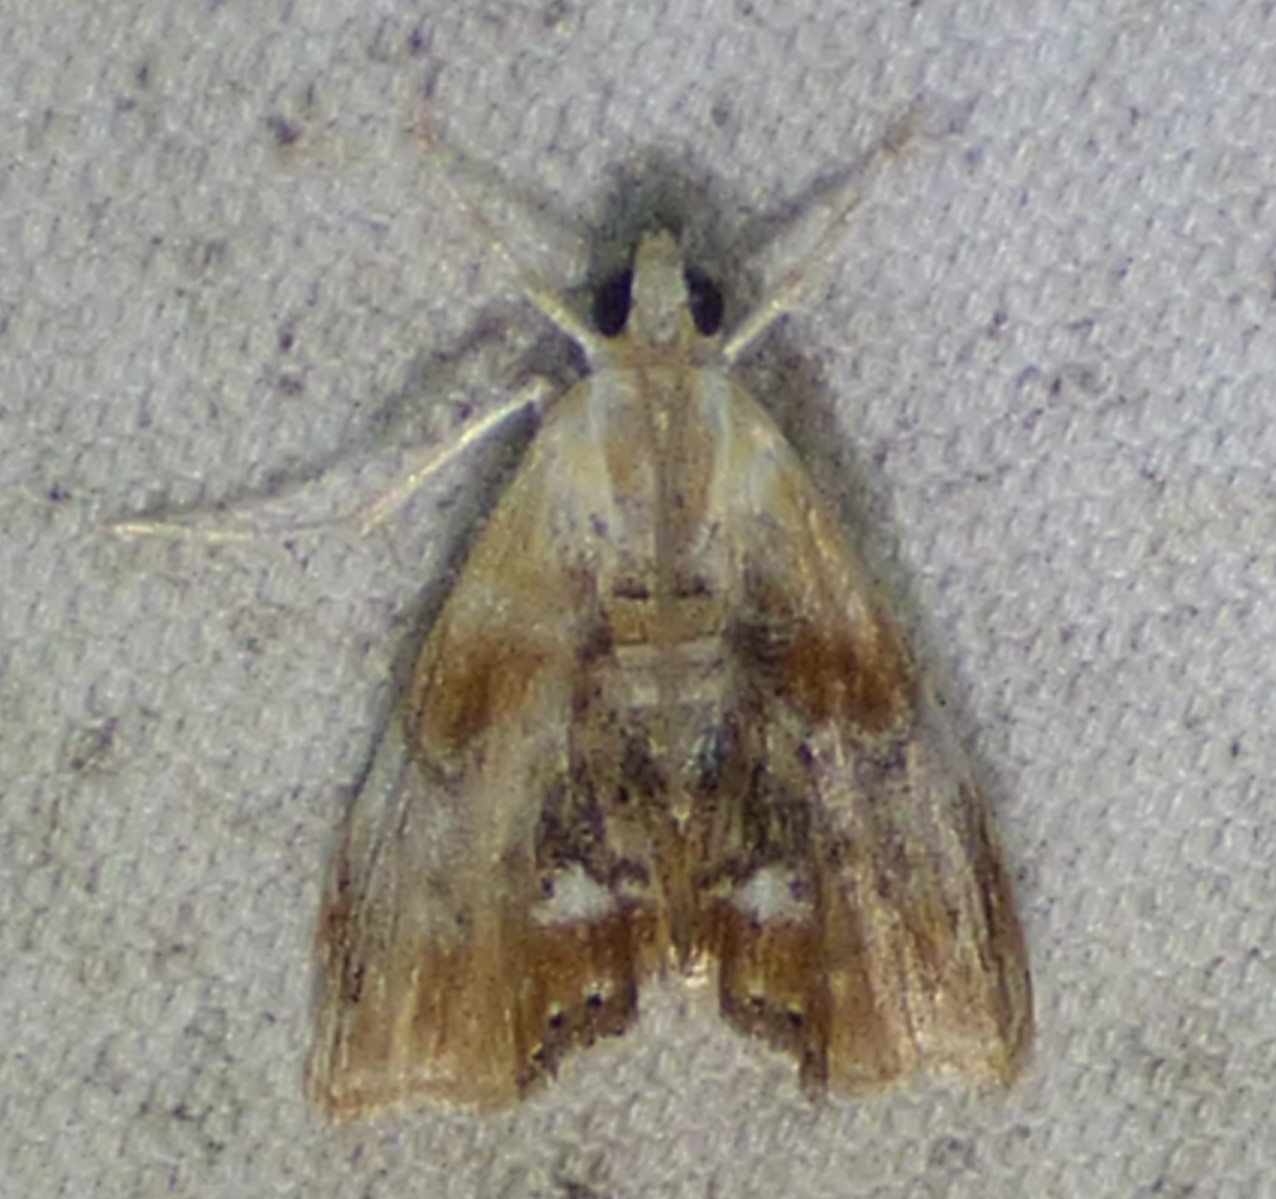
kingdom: Animalia
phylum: Arthropoda
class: Insecta
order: Lepidoptera
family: Crambidae
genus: Dicymolomia
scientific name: Dicymolomia julianalis
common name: Julia's dicymolomia moth
